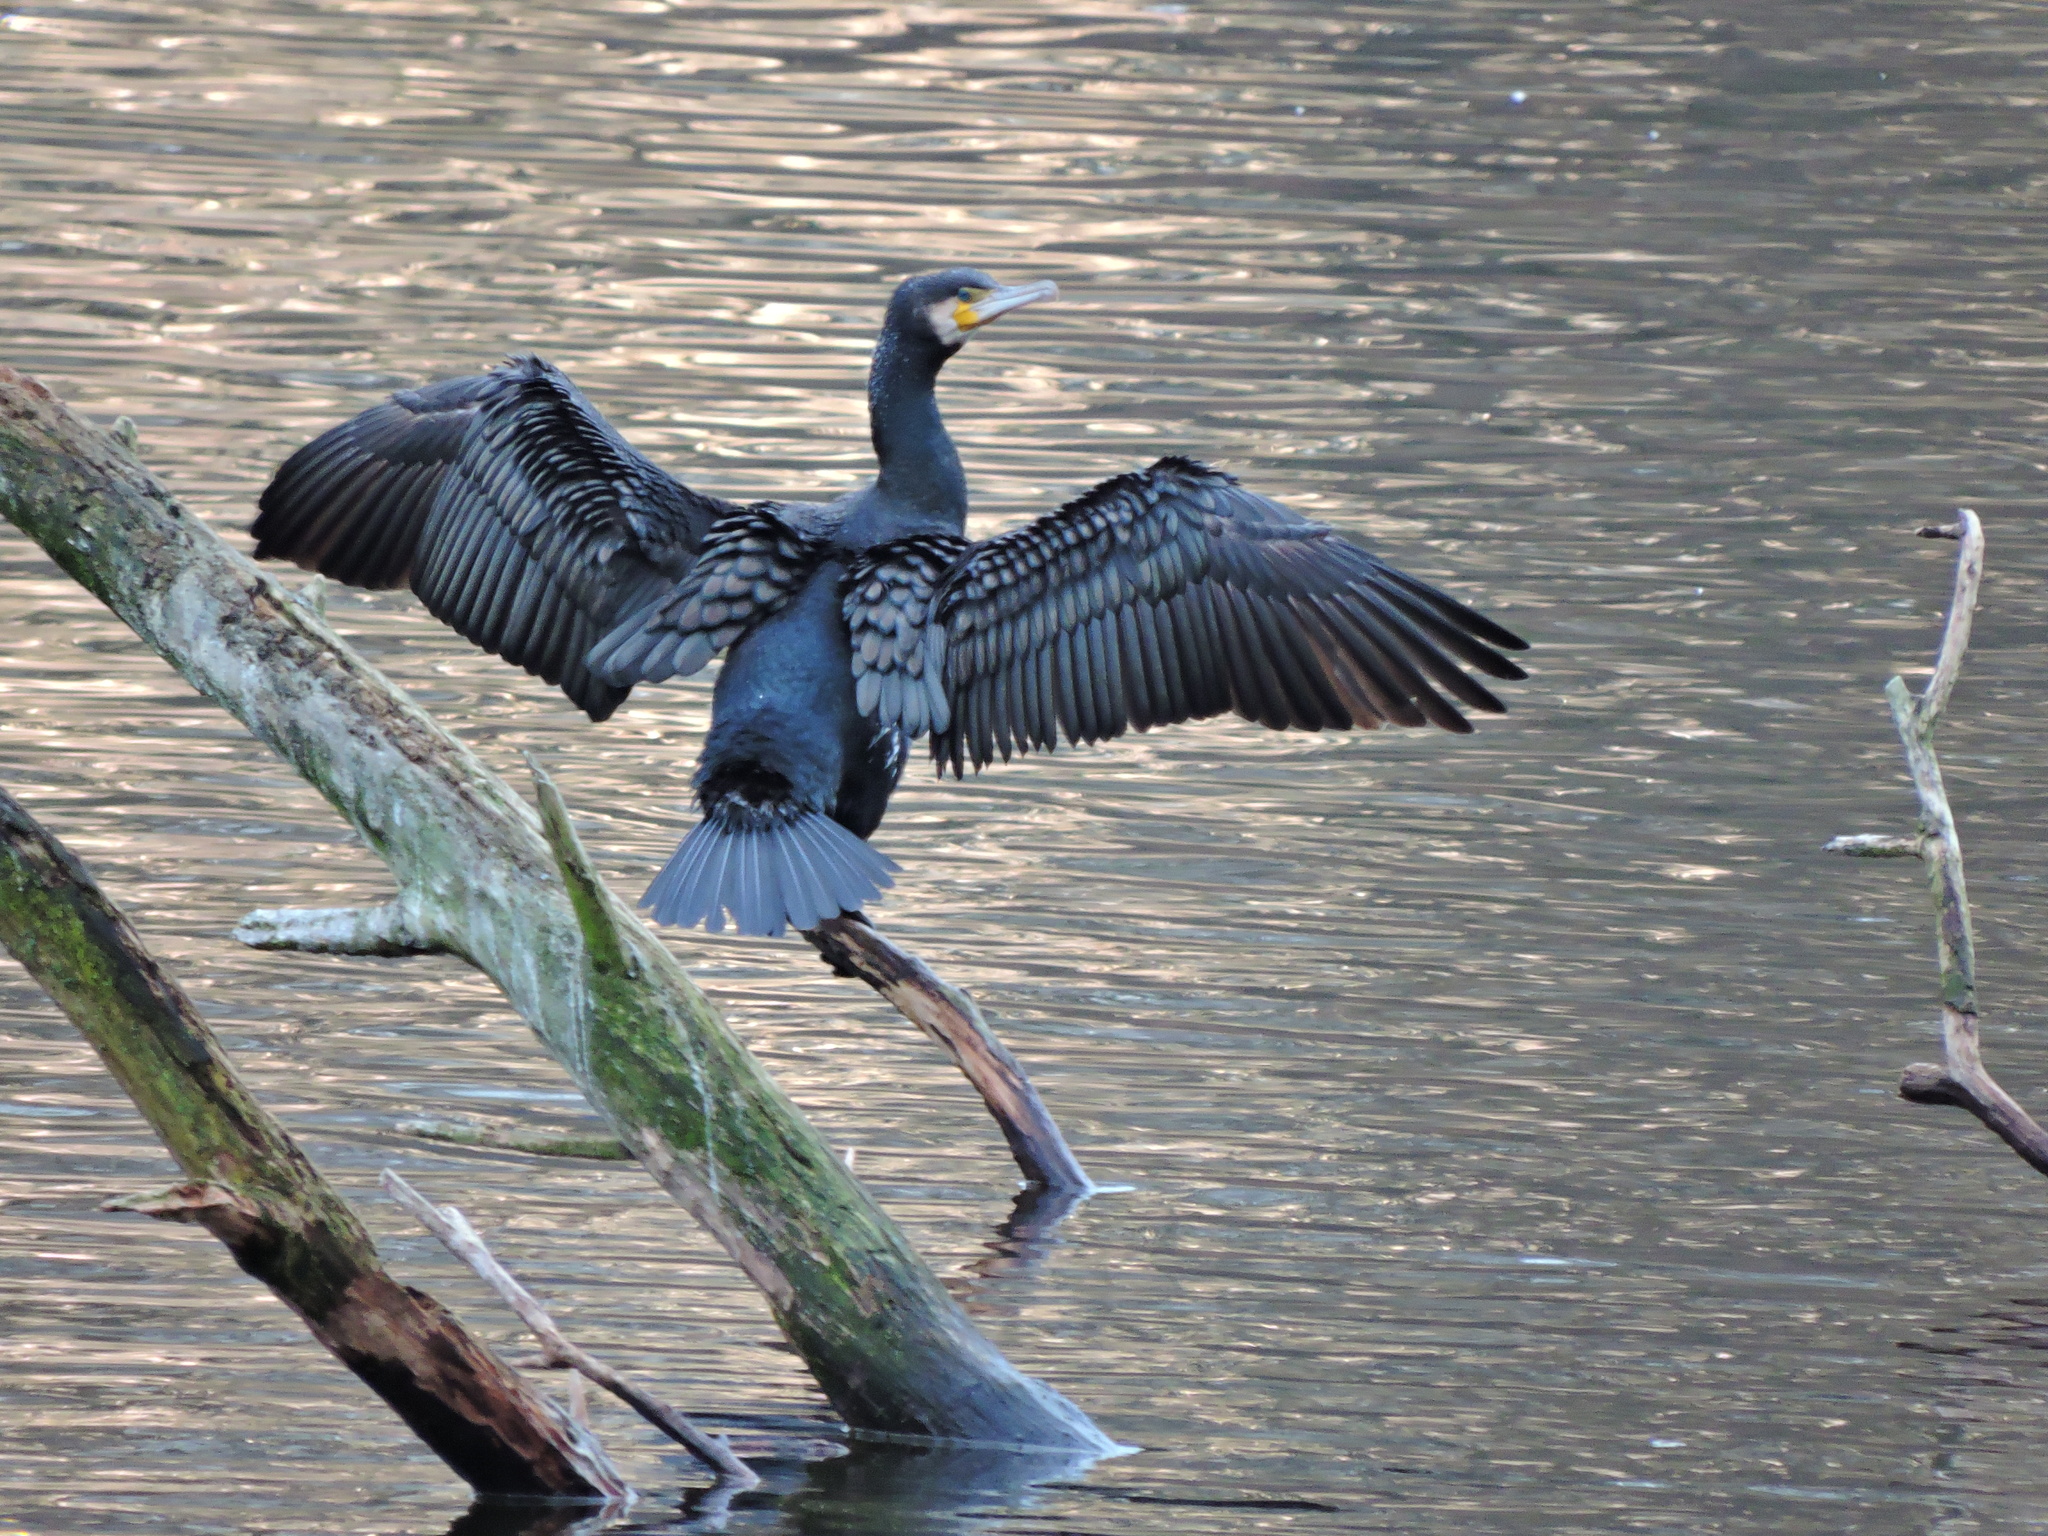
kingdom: Animalia
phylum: Chordata
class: Aves
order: Suliformes
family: Phalacrocoracidae
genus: Phalacrocorax
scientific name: Phalacrocorax carbo
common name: Great cormorant
